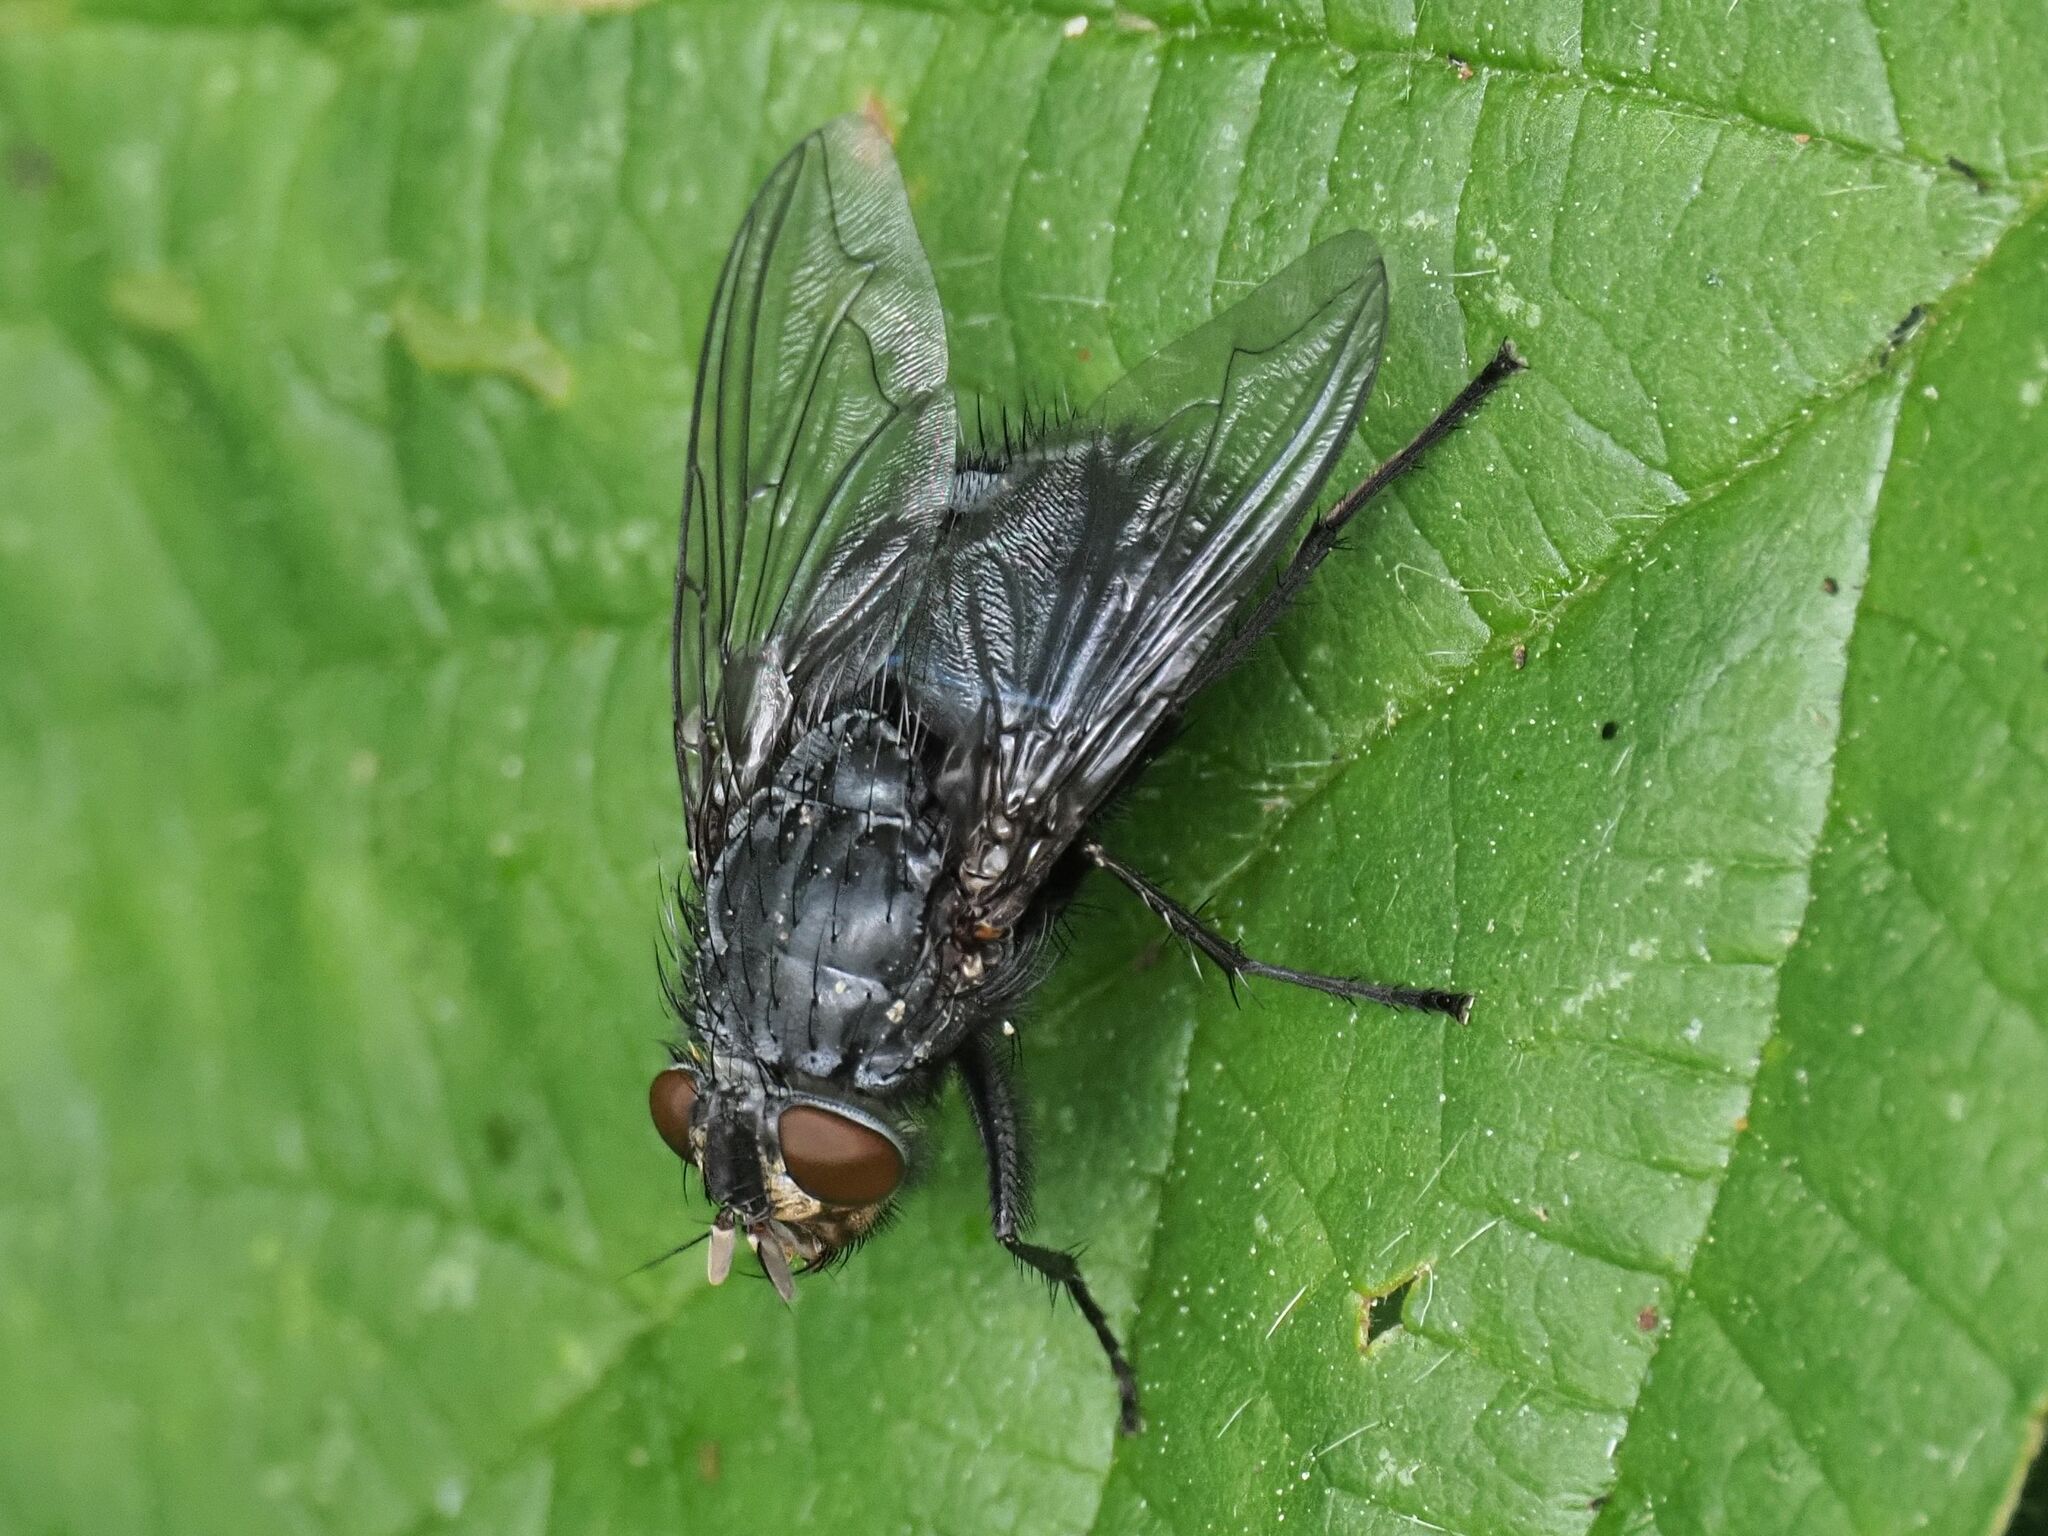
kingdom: Animalia
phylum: Arthropoda
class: Insecta
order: Diptera
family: Calliphoridae
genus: Calliphora
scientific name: Calliphora vicina
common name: Common blow flie
